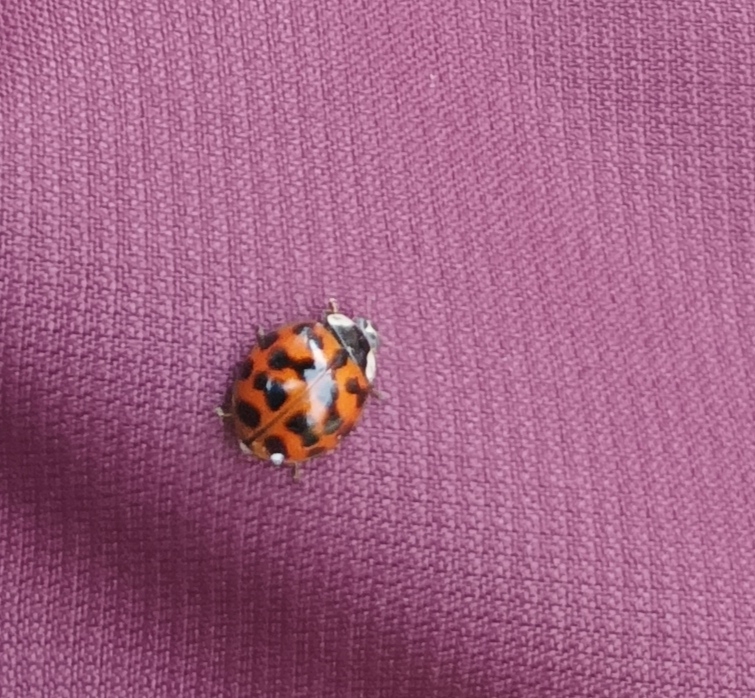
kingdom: Animalia
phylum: Arthropoda
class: Insecta
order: Coleoptera
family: Coccinellidae
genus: Harmonia
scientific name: Harmonia axyridis
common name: Harlequin ladybird
